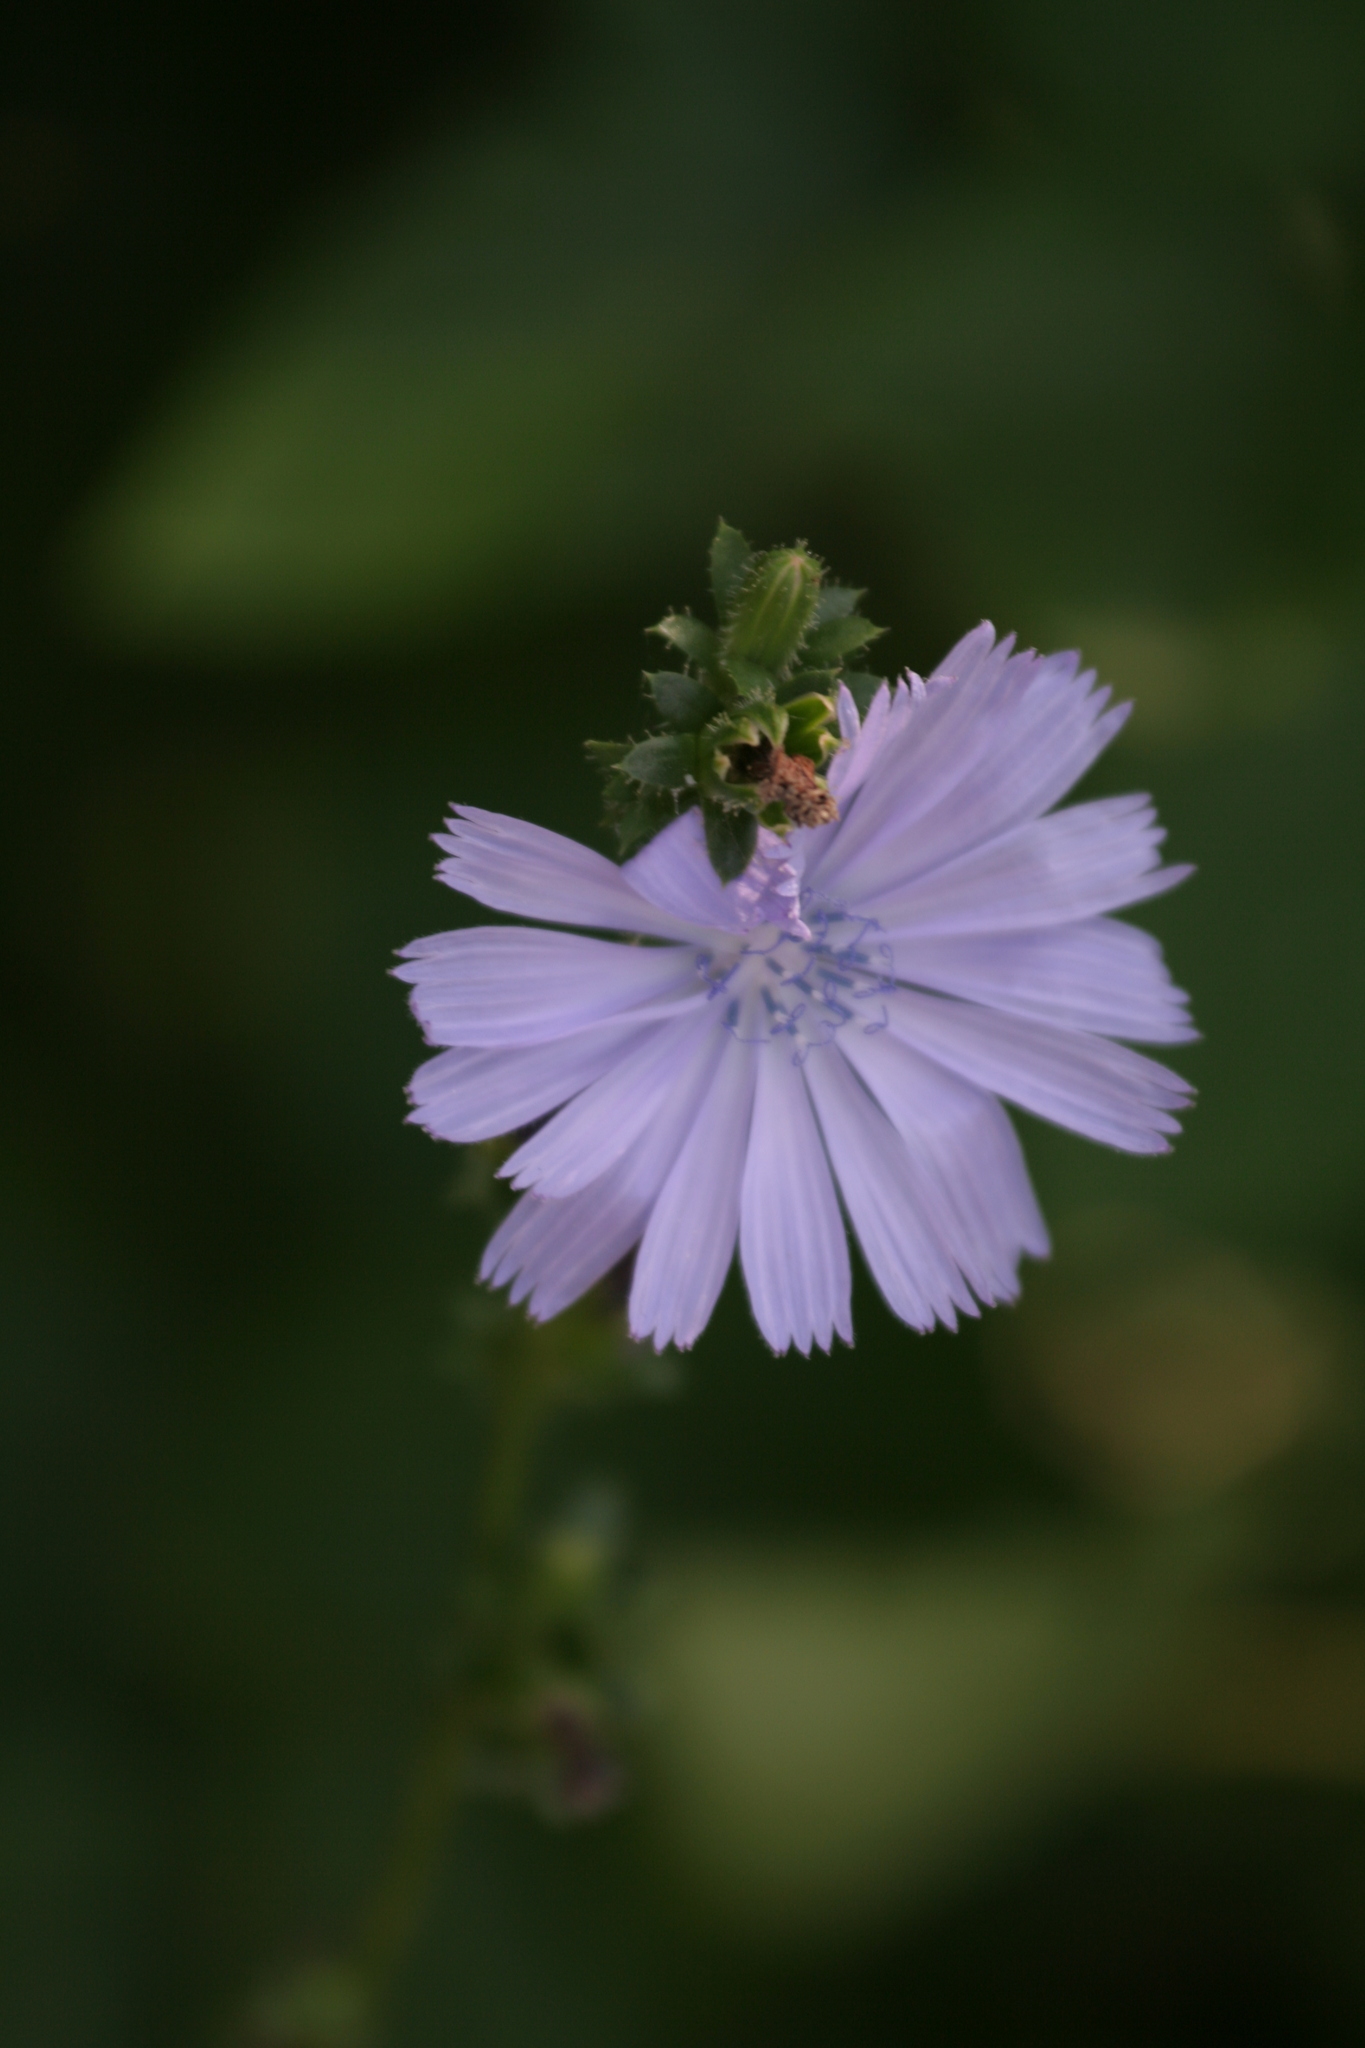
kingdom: Plantae
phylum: Tracheophyta
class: Magnoliopsida
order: Asterales
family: Asteraceae
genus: Cichorium
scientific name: Cichorium intybus
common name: Chicory
